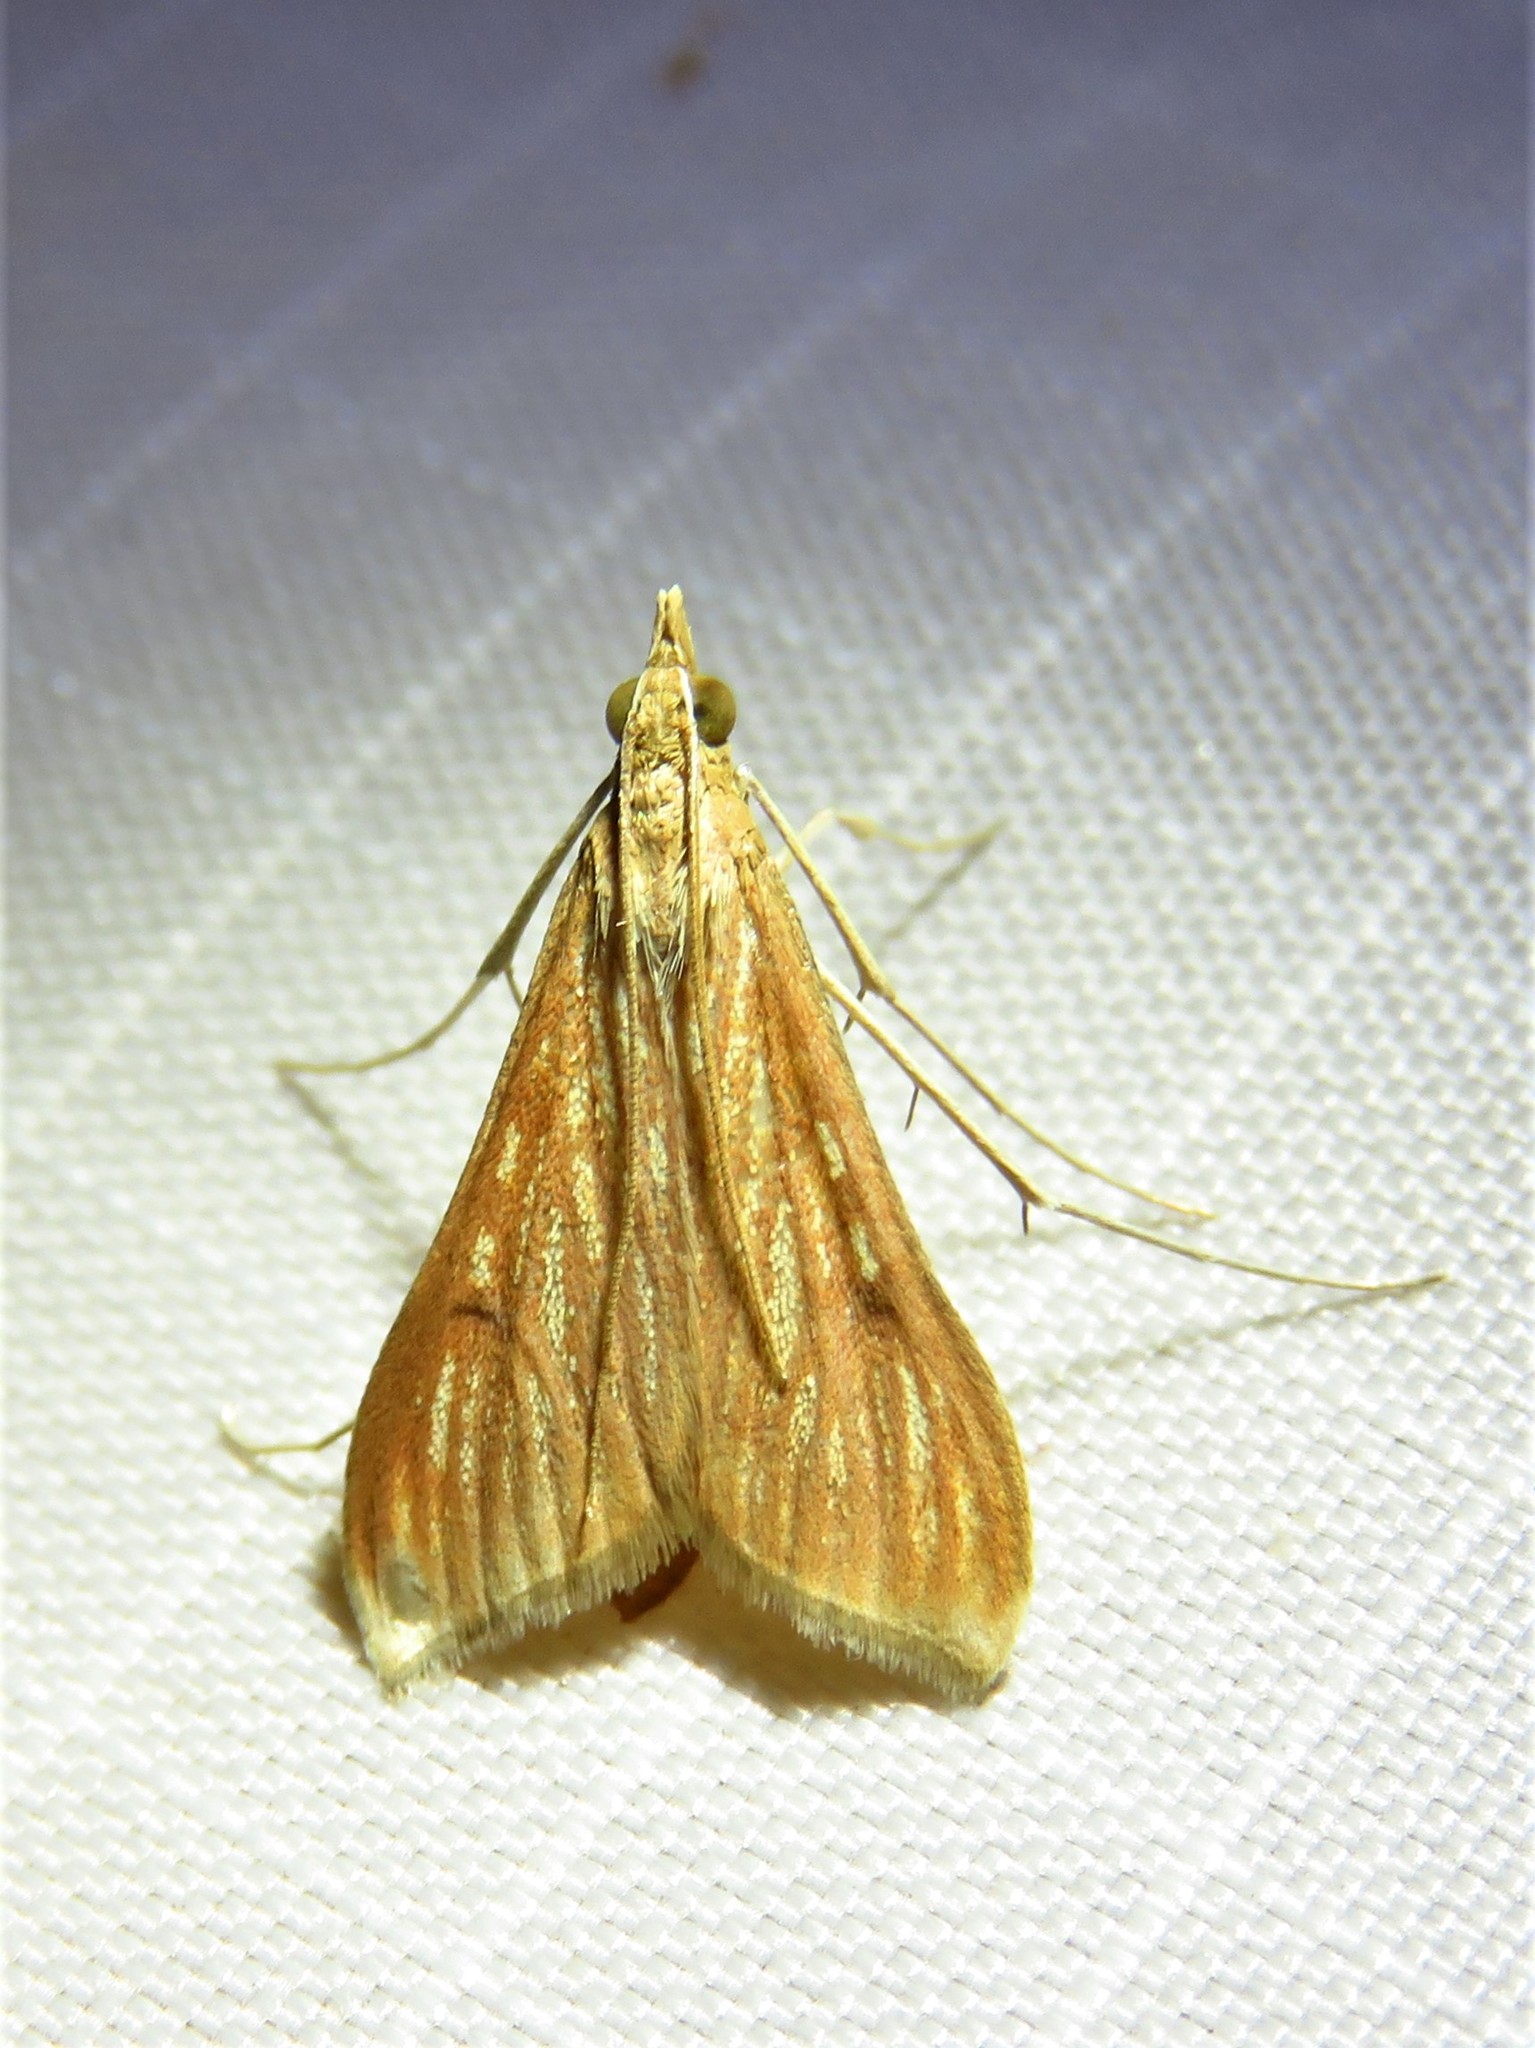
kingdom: Animalia
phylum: Arthropoda
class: Insecta
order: Lepidoptera
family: Crambidae
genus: Antigastra
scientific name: Antigastra catalaunalis
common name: Spanish dot
